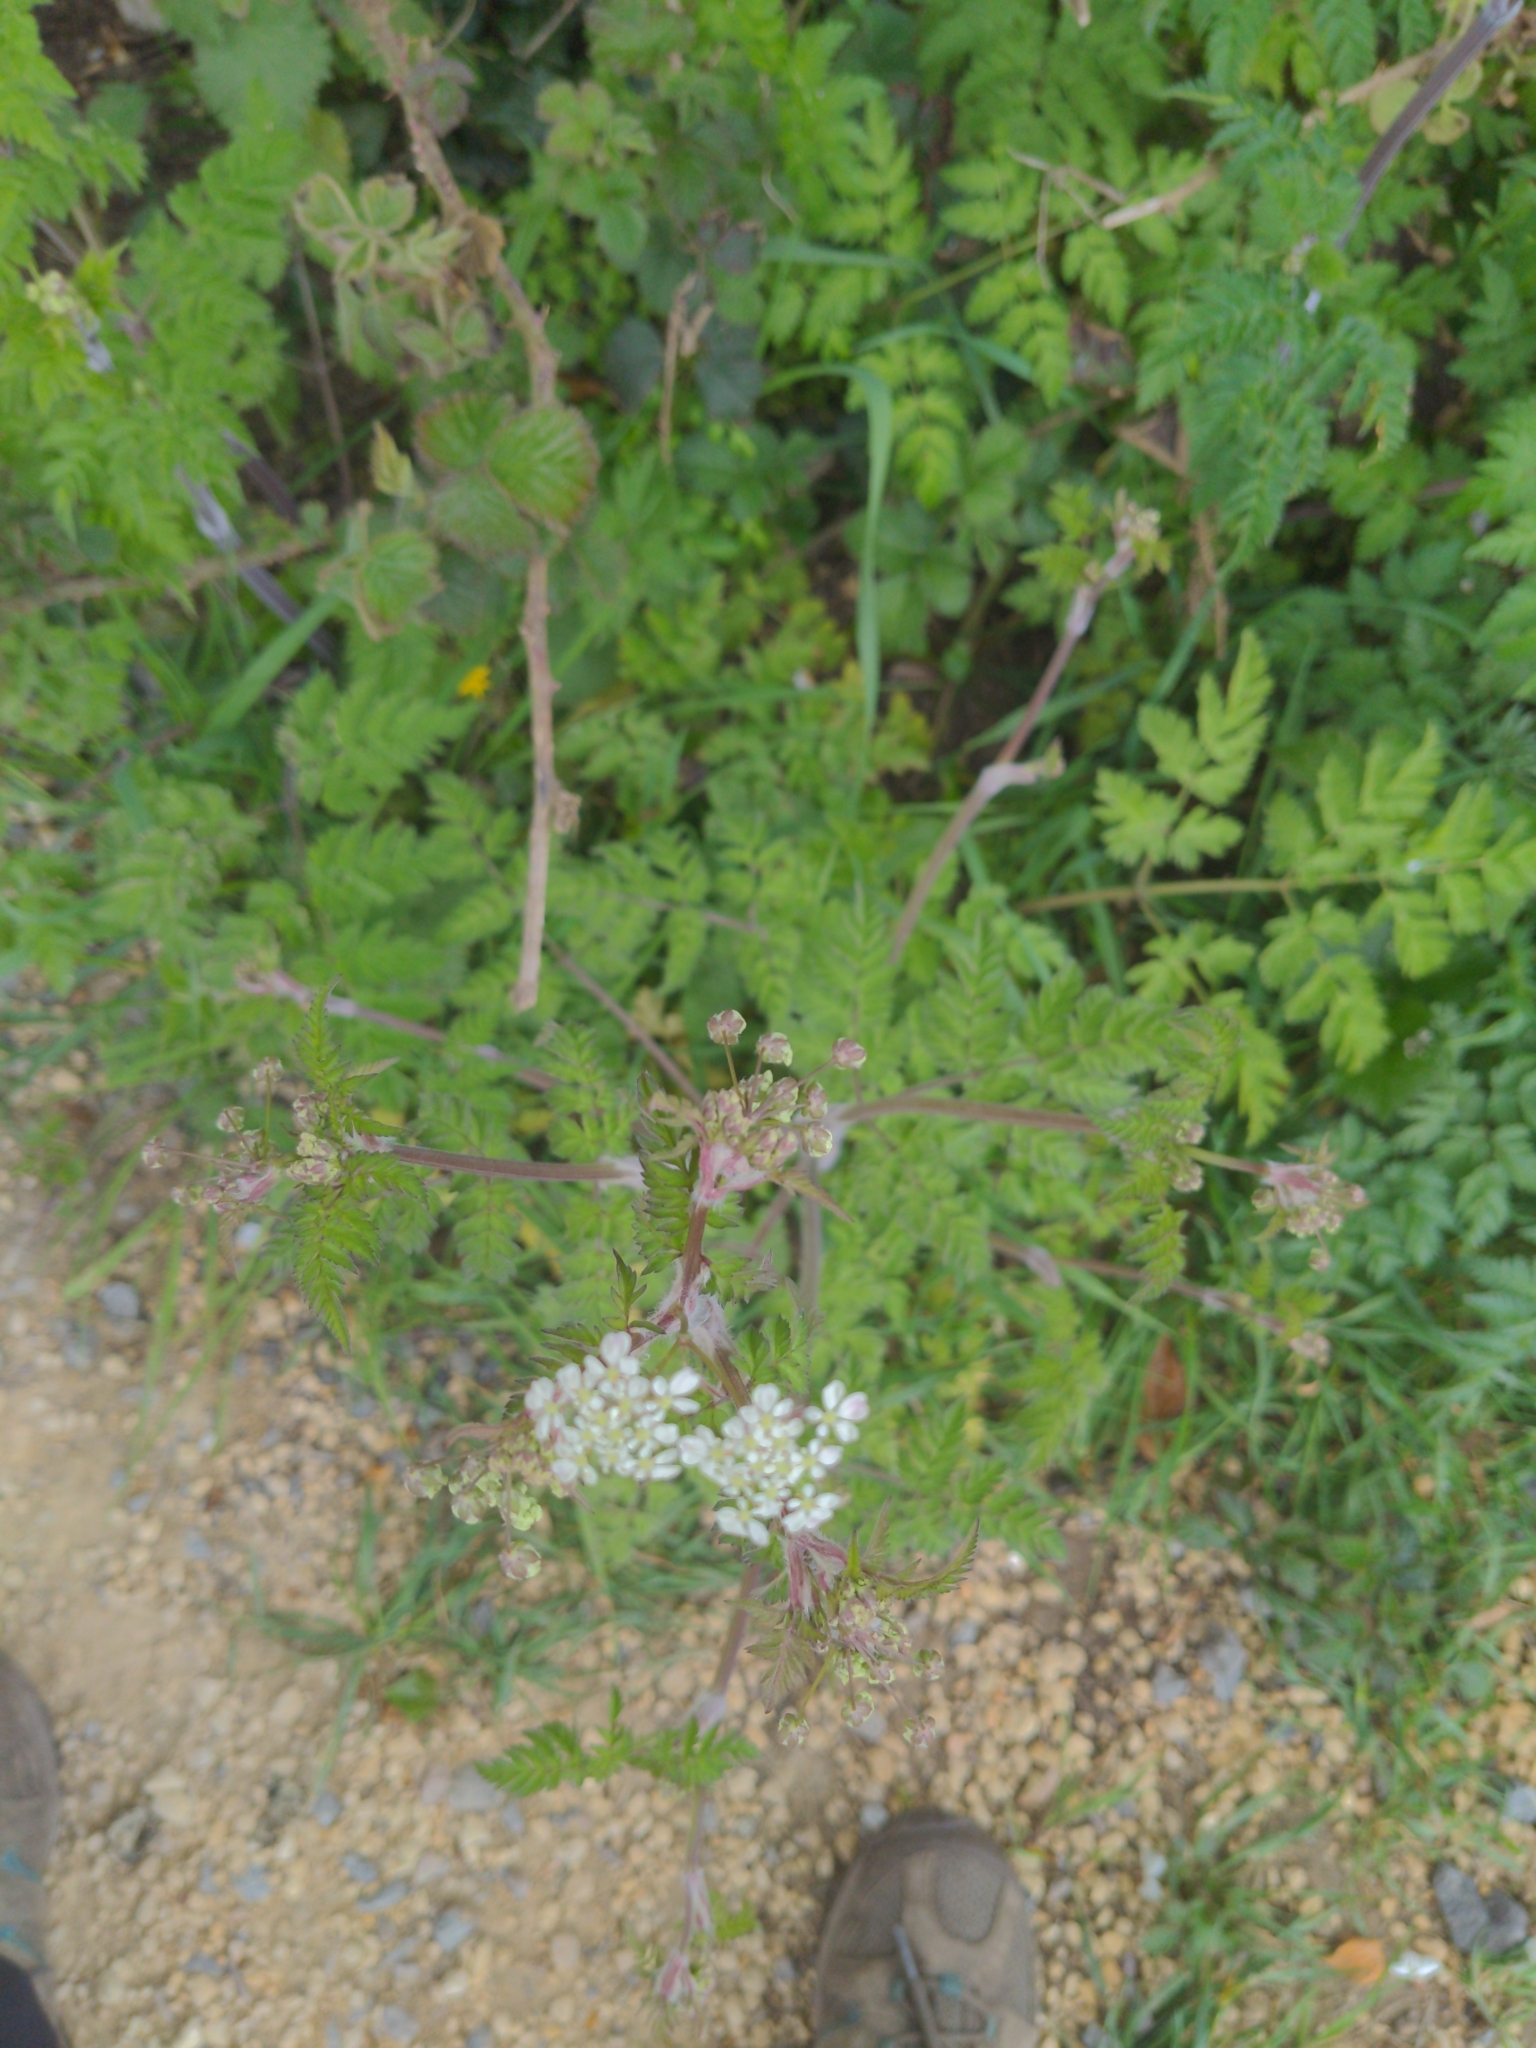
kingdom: Plantae
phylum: Tracheophyta
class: Magnoliopsida
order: Apiales
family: Apiaceae
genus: Anthriscus
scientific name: Anthriscus sylvestris
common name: Cow parsley
